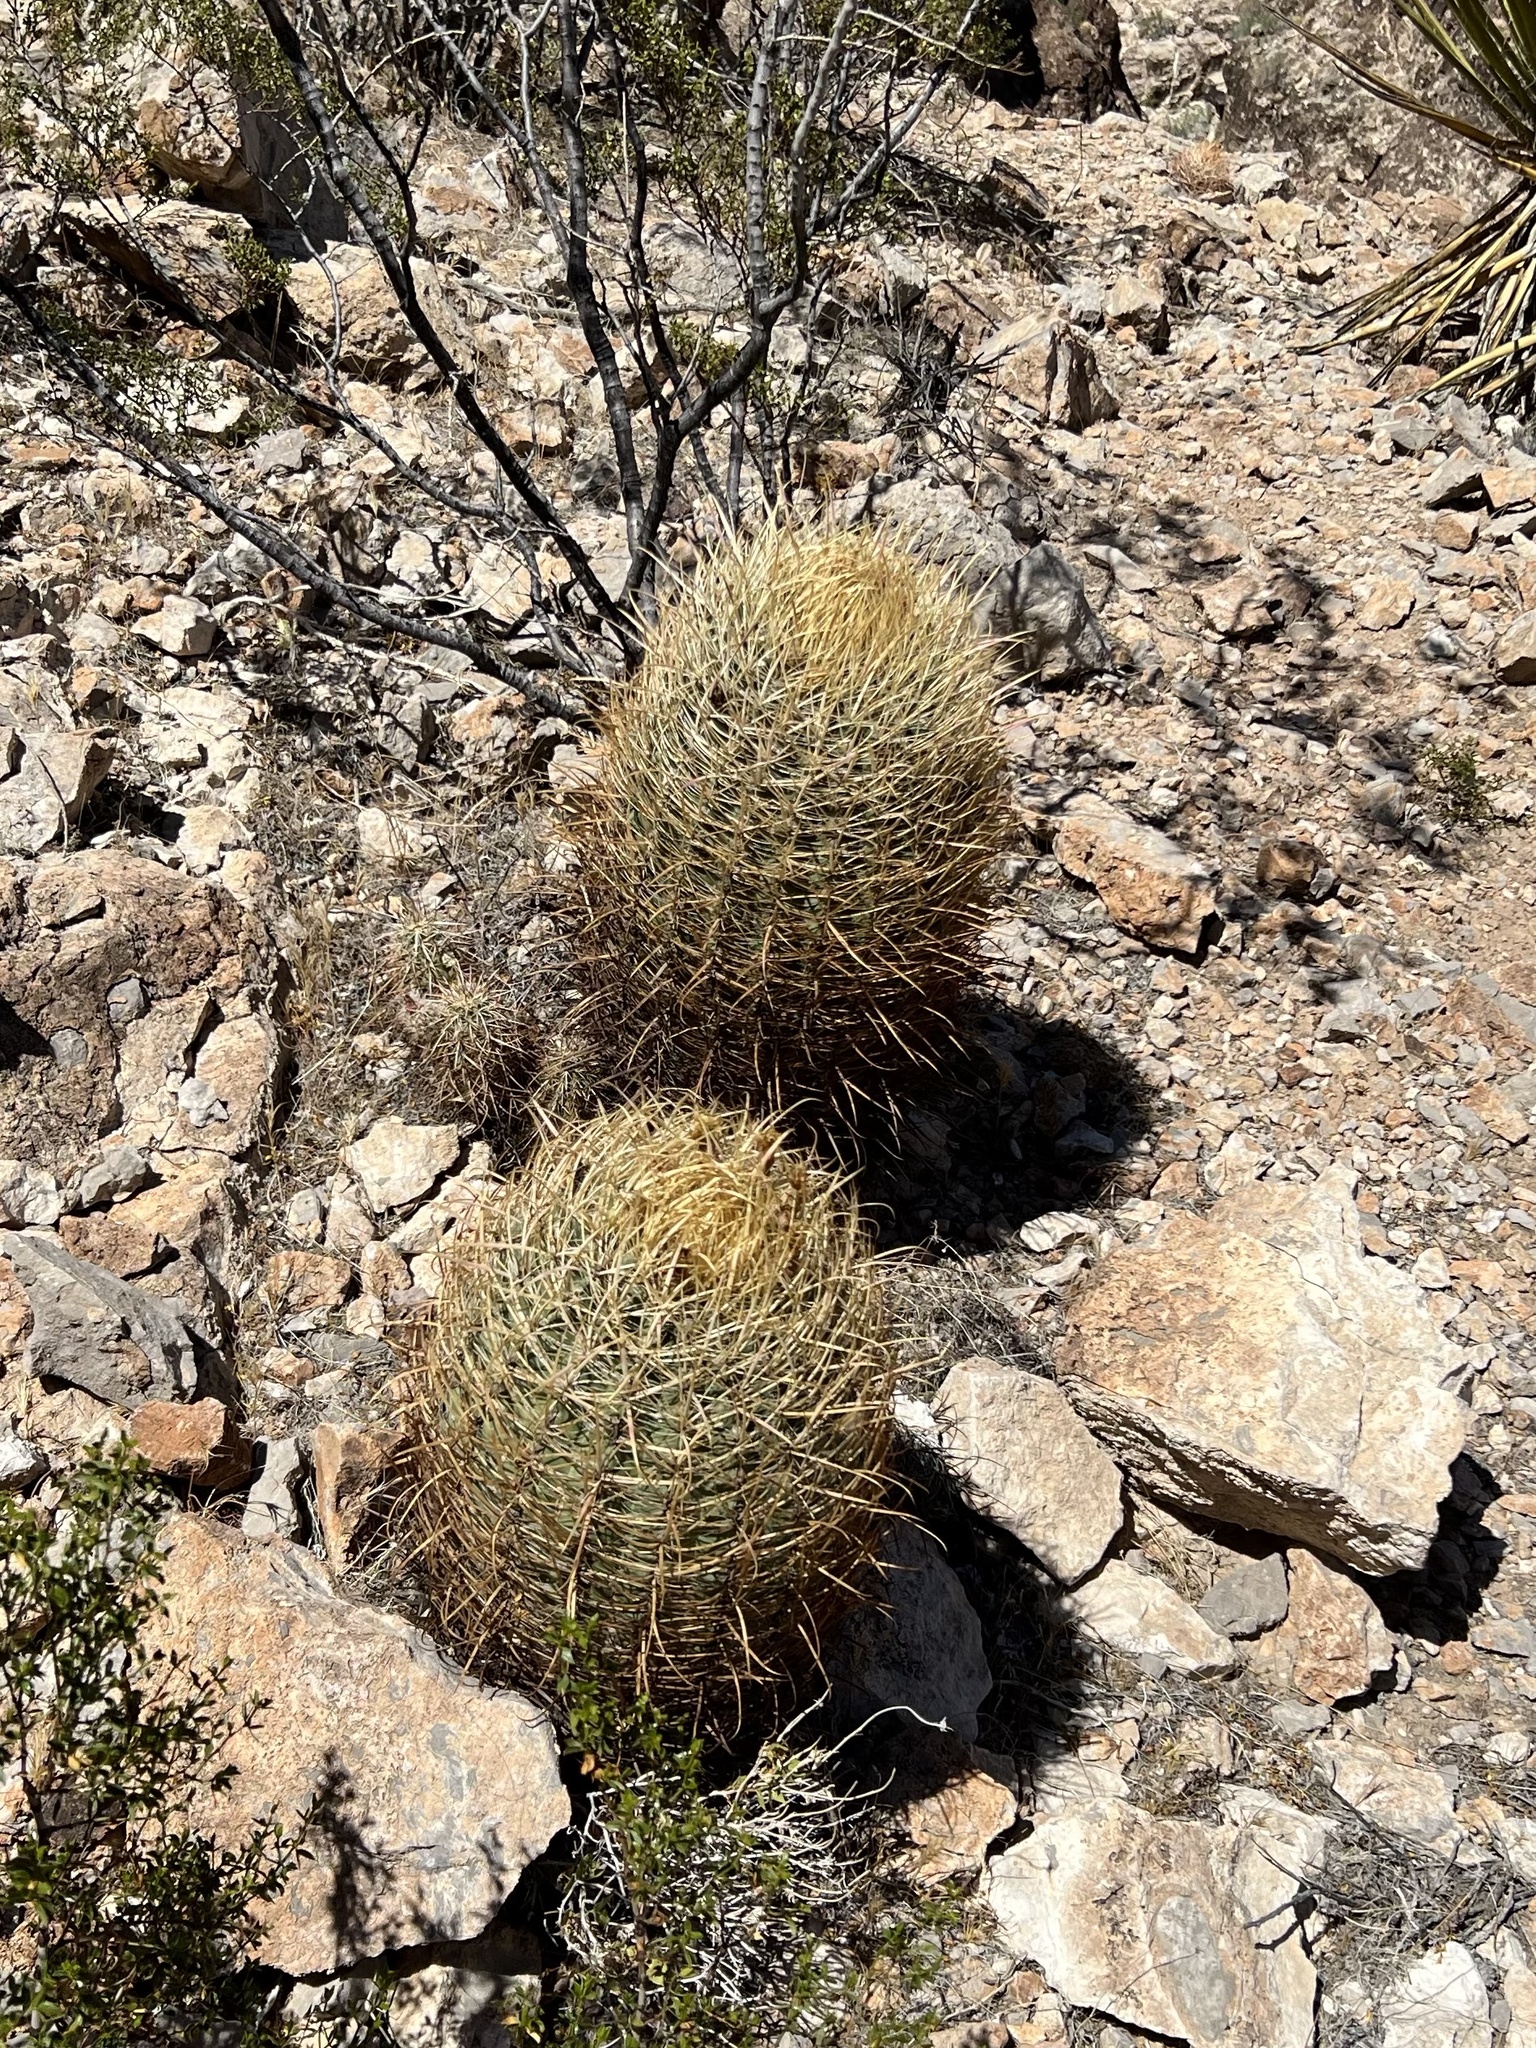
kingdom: Plantae
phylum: Tracheophyta
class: Magnoliopsida
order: Caryophyllales
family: Cactaceae
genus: Ferocactus
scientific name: Ferocactus cylindraceus
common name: California barrel cactus
